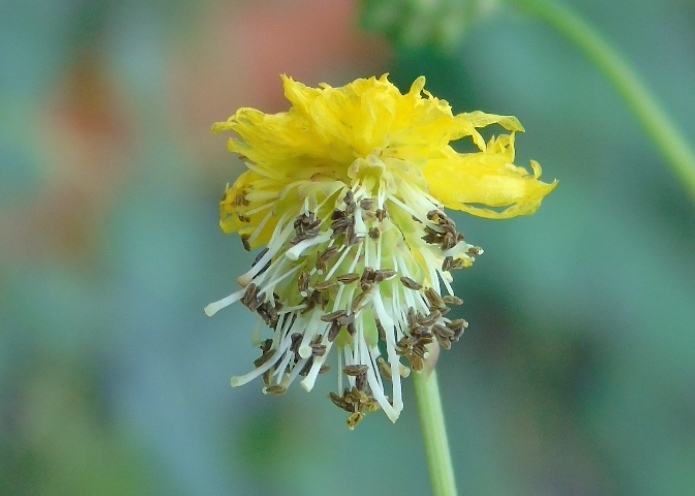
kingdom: Plantae
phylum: Tracheophyta
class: Magnoliopsida
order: Fabales
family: Fabaceae
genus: Neptunia
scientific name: Neptunia plena
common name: Dead and awake
